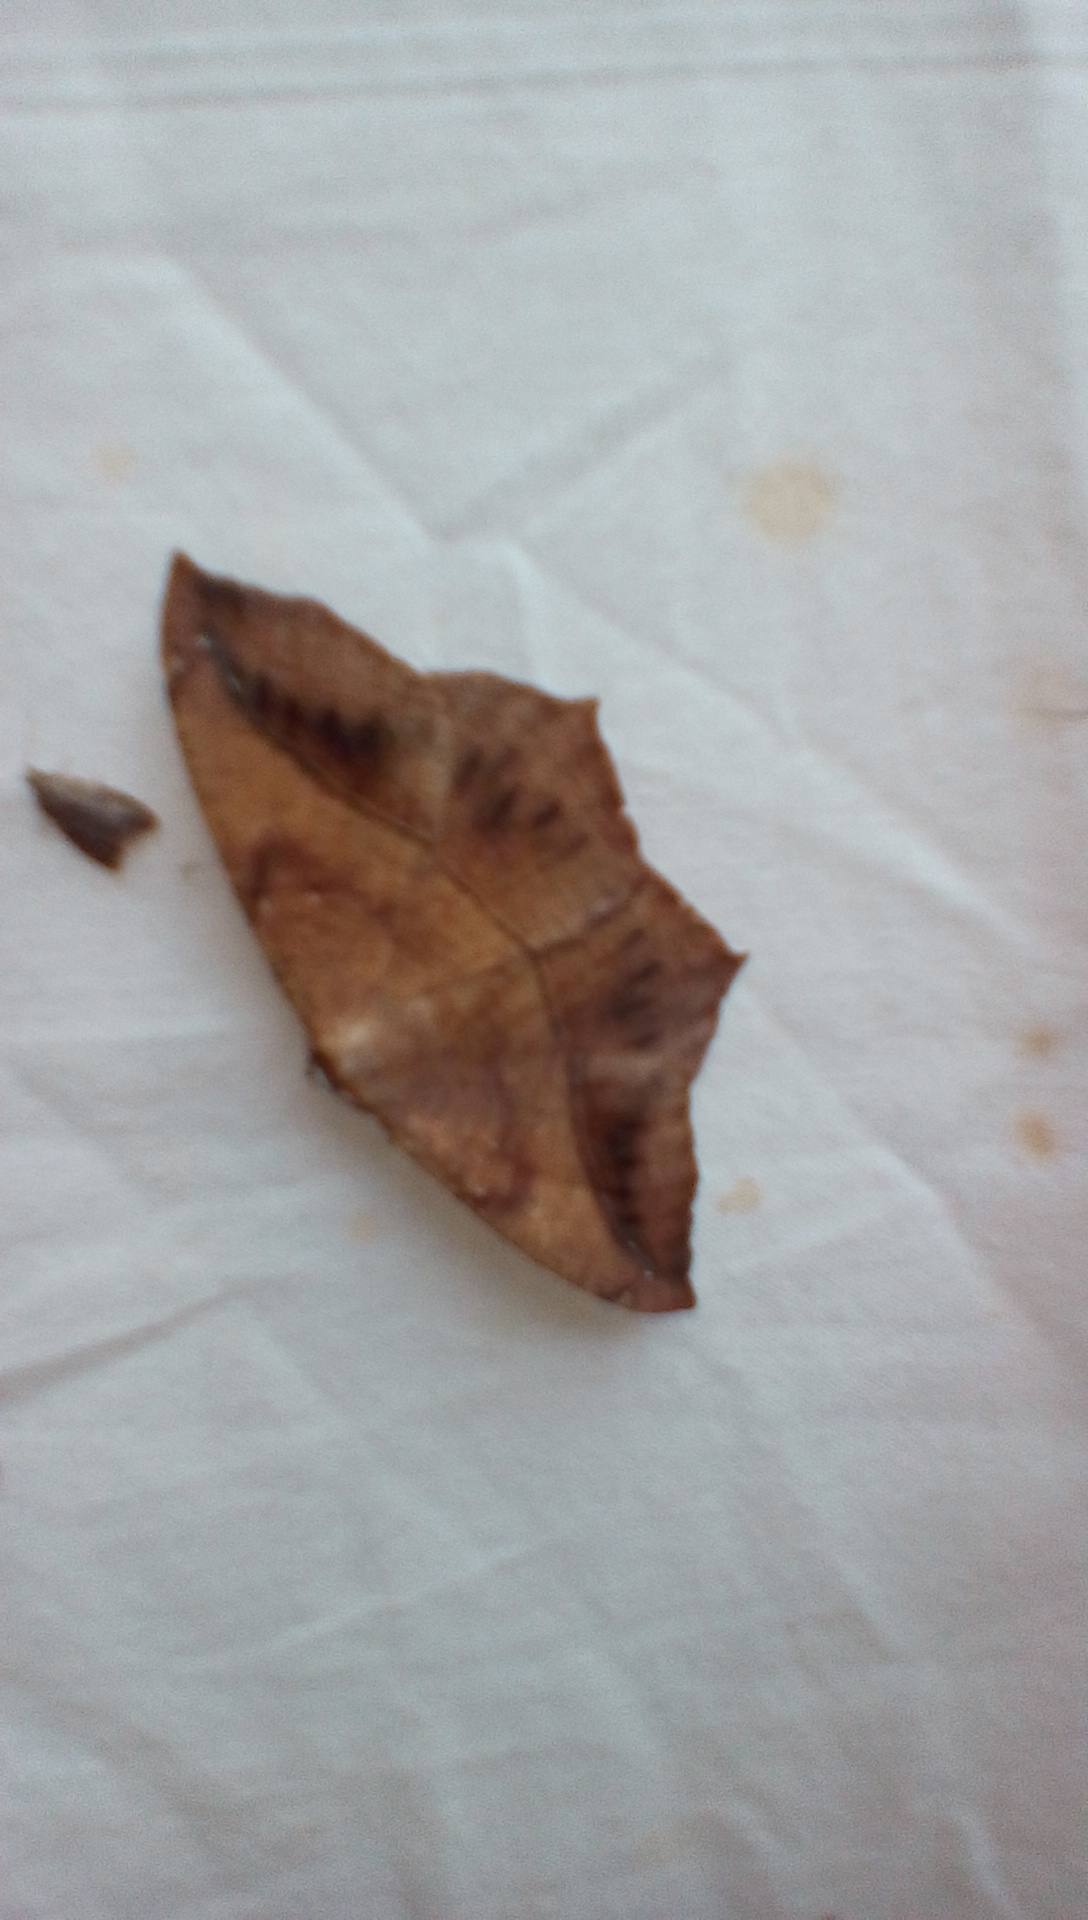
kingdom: Animalia
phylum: Arthropoda
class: Insecta
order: Lepidoptera
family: Geometridae
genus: Prochoerodes
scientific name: Prochoerodes lineola
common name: Large maple spanworm
